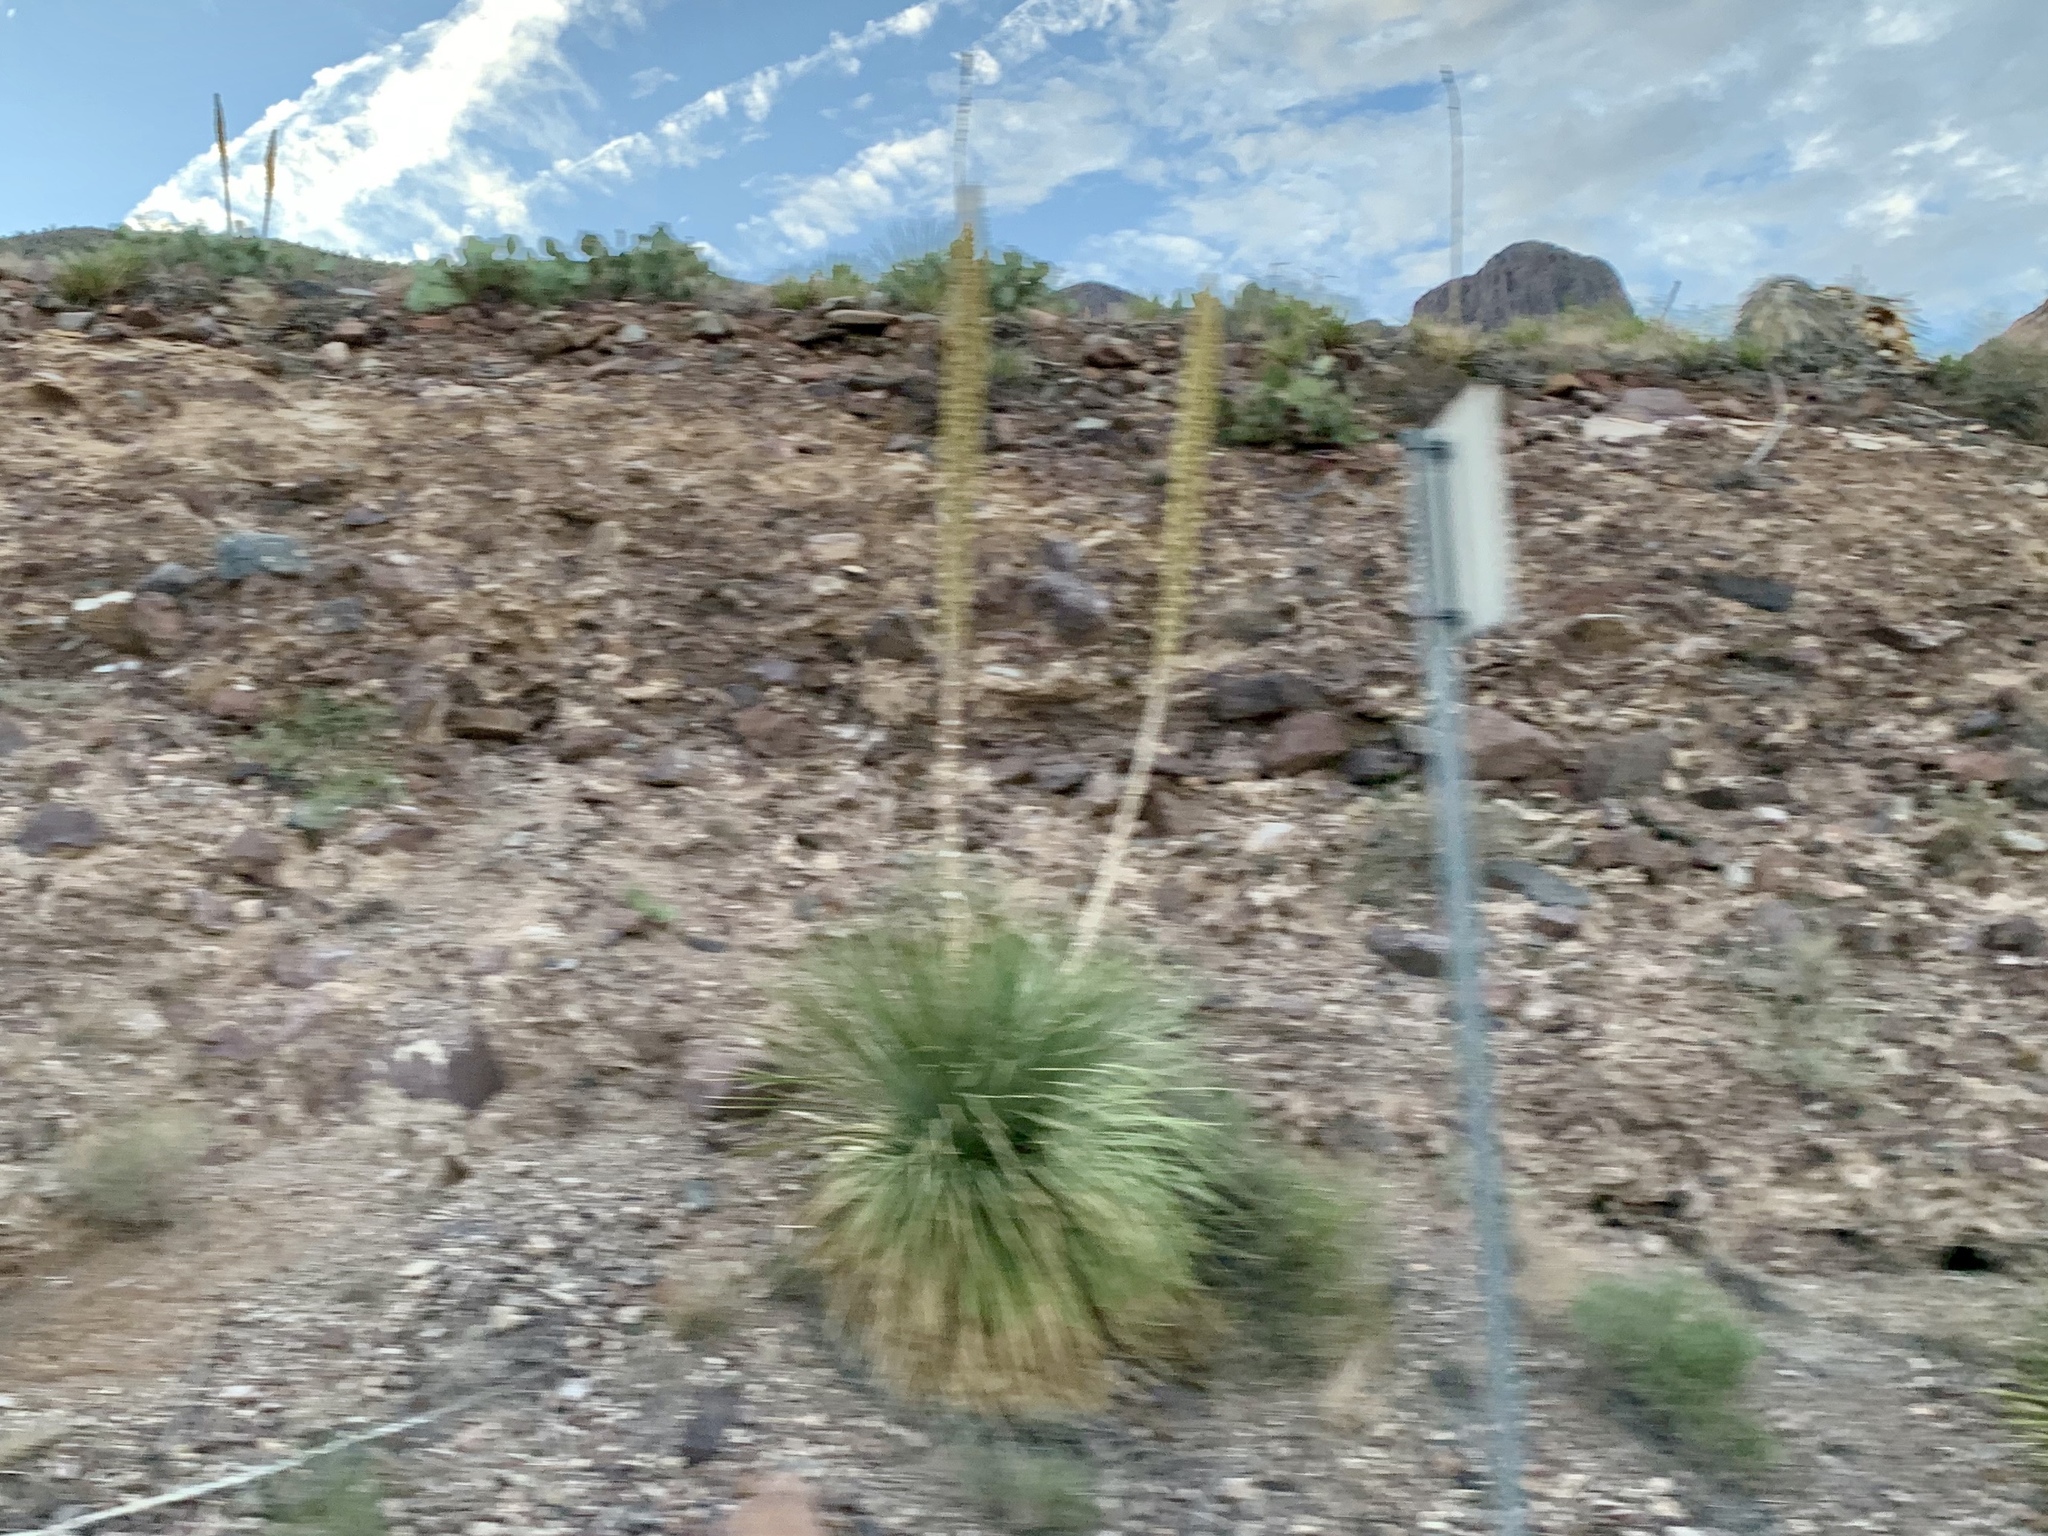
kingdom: Plantae
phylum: Tracheophyta
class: Liliopsida
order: Asparagales
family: Asparagaceae
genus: Dasylirion
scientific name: Dasylirion wheeleri
